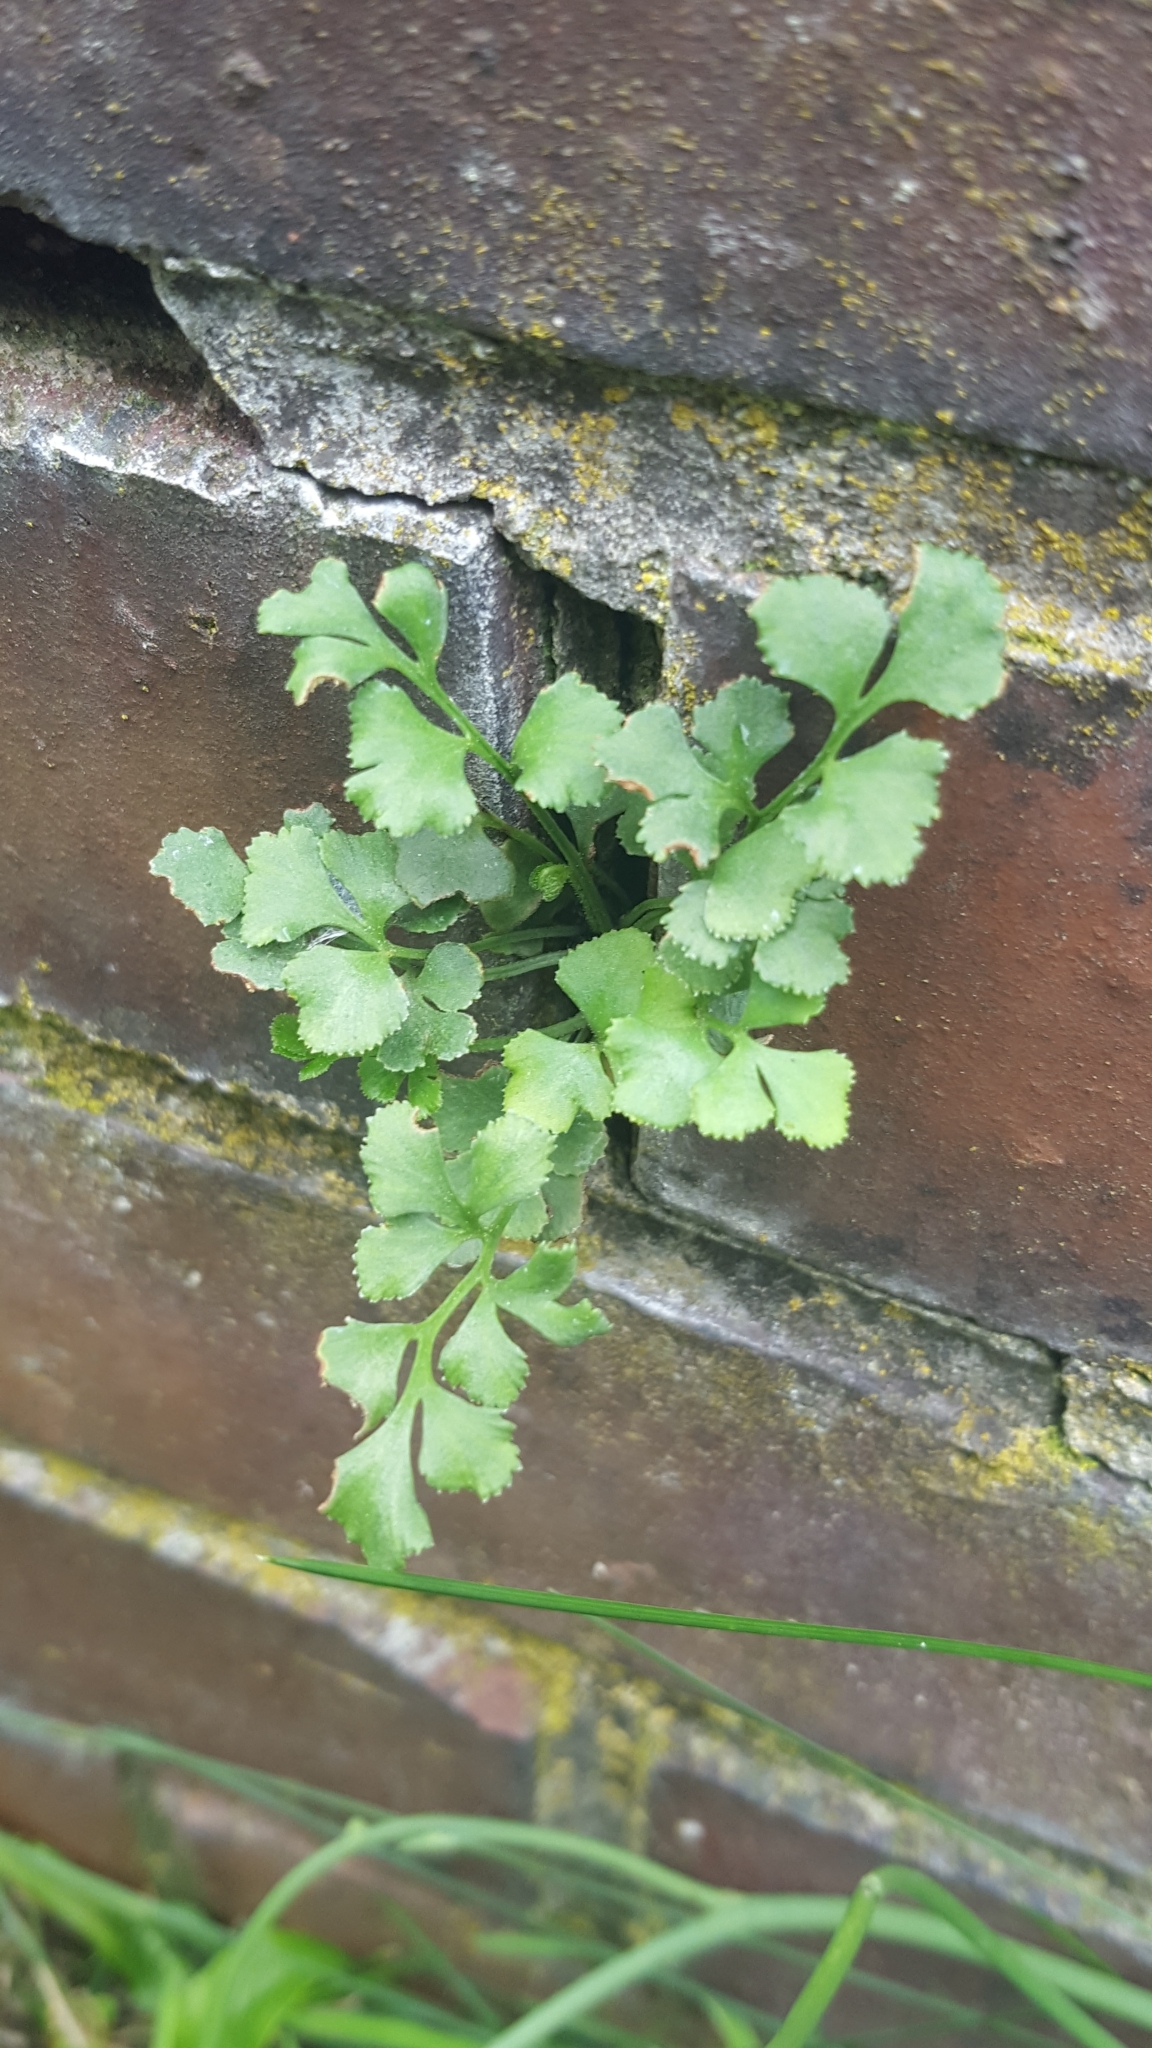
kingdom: Plantae
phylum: Tracheophyta
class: Polypodiopsida
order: Polypodiales
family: Aspleniaceae
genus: Asplenium
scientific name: Asplenium ruta-muraria
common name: Wall-rue
